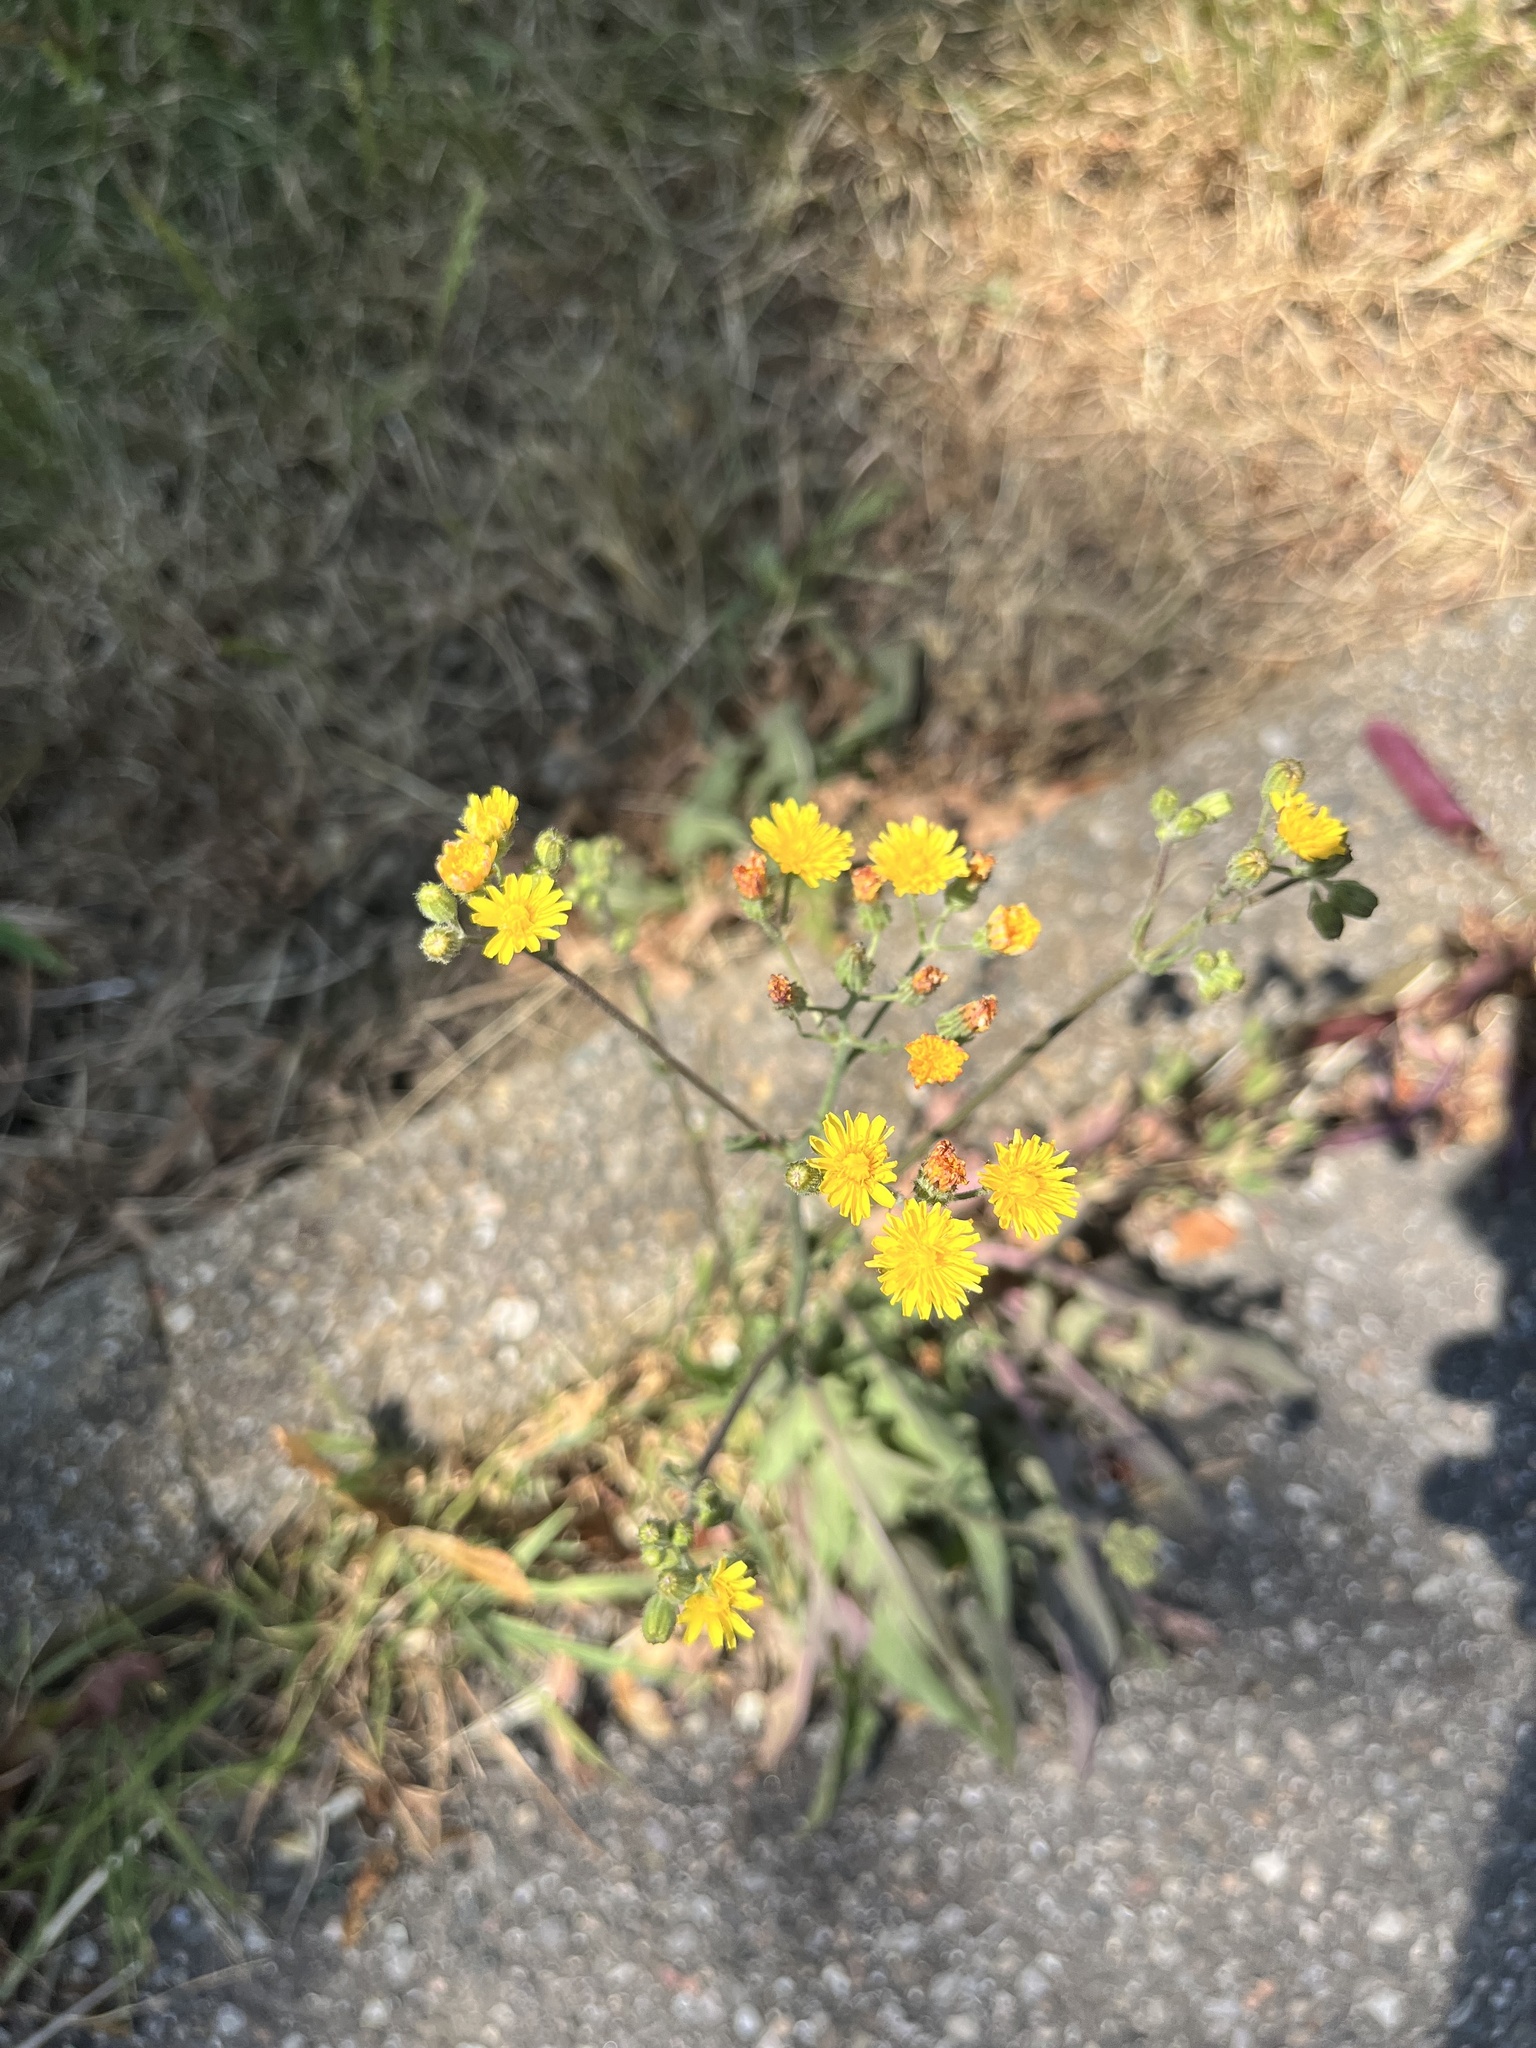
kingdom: Plantae
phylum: Tracheophyta
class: Magnoliopsida
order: Asterales
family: Asteraceae
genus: Crepis
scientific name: Crepis capillaris
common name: Smooth hawksbeard
